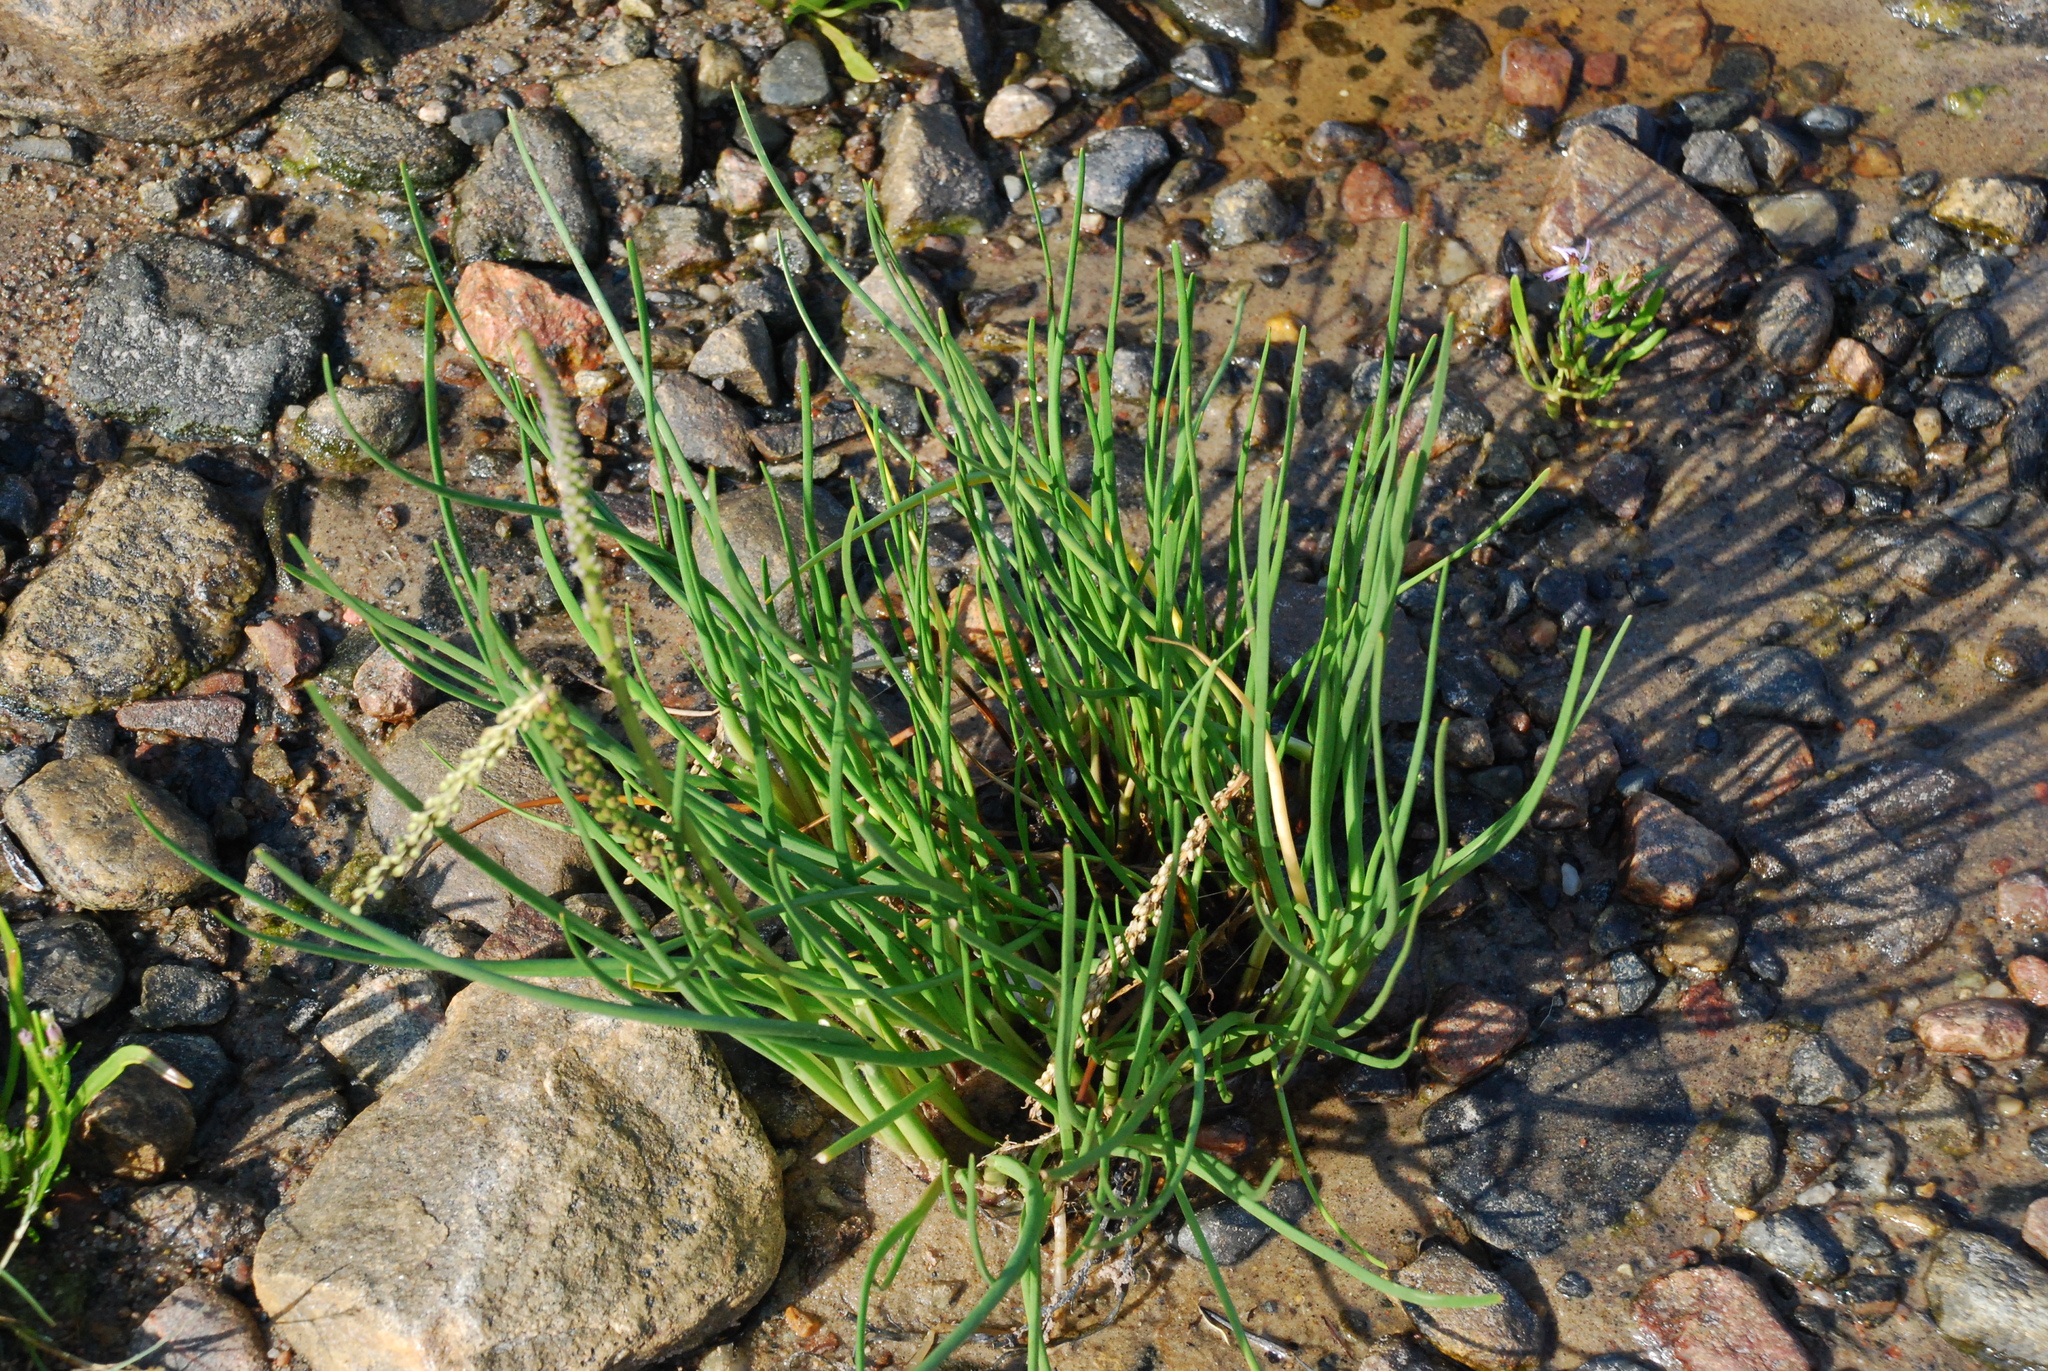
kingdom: Plantae
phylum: Tracheophyta
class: Liliopsida
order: Alismatales
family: Juncaginaceae
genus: Triglochin
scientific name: Triglochin maritima
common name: Sea arrowgrass
